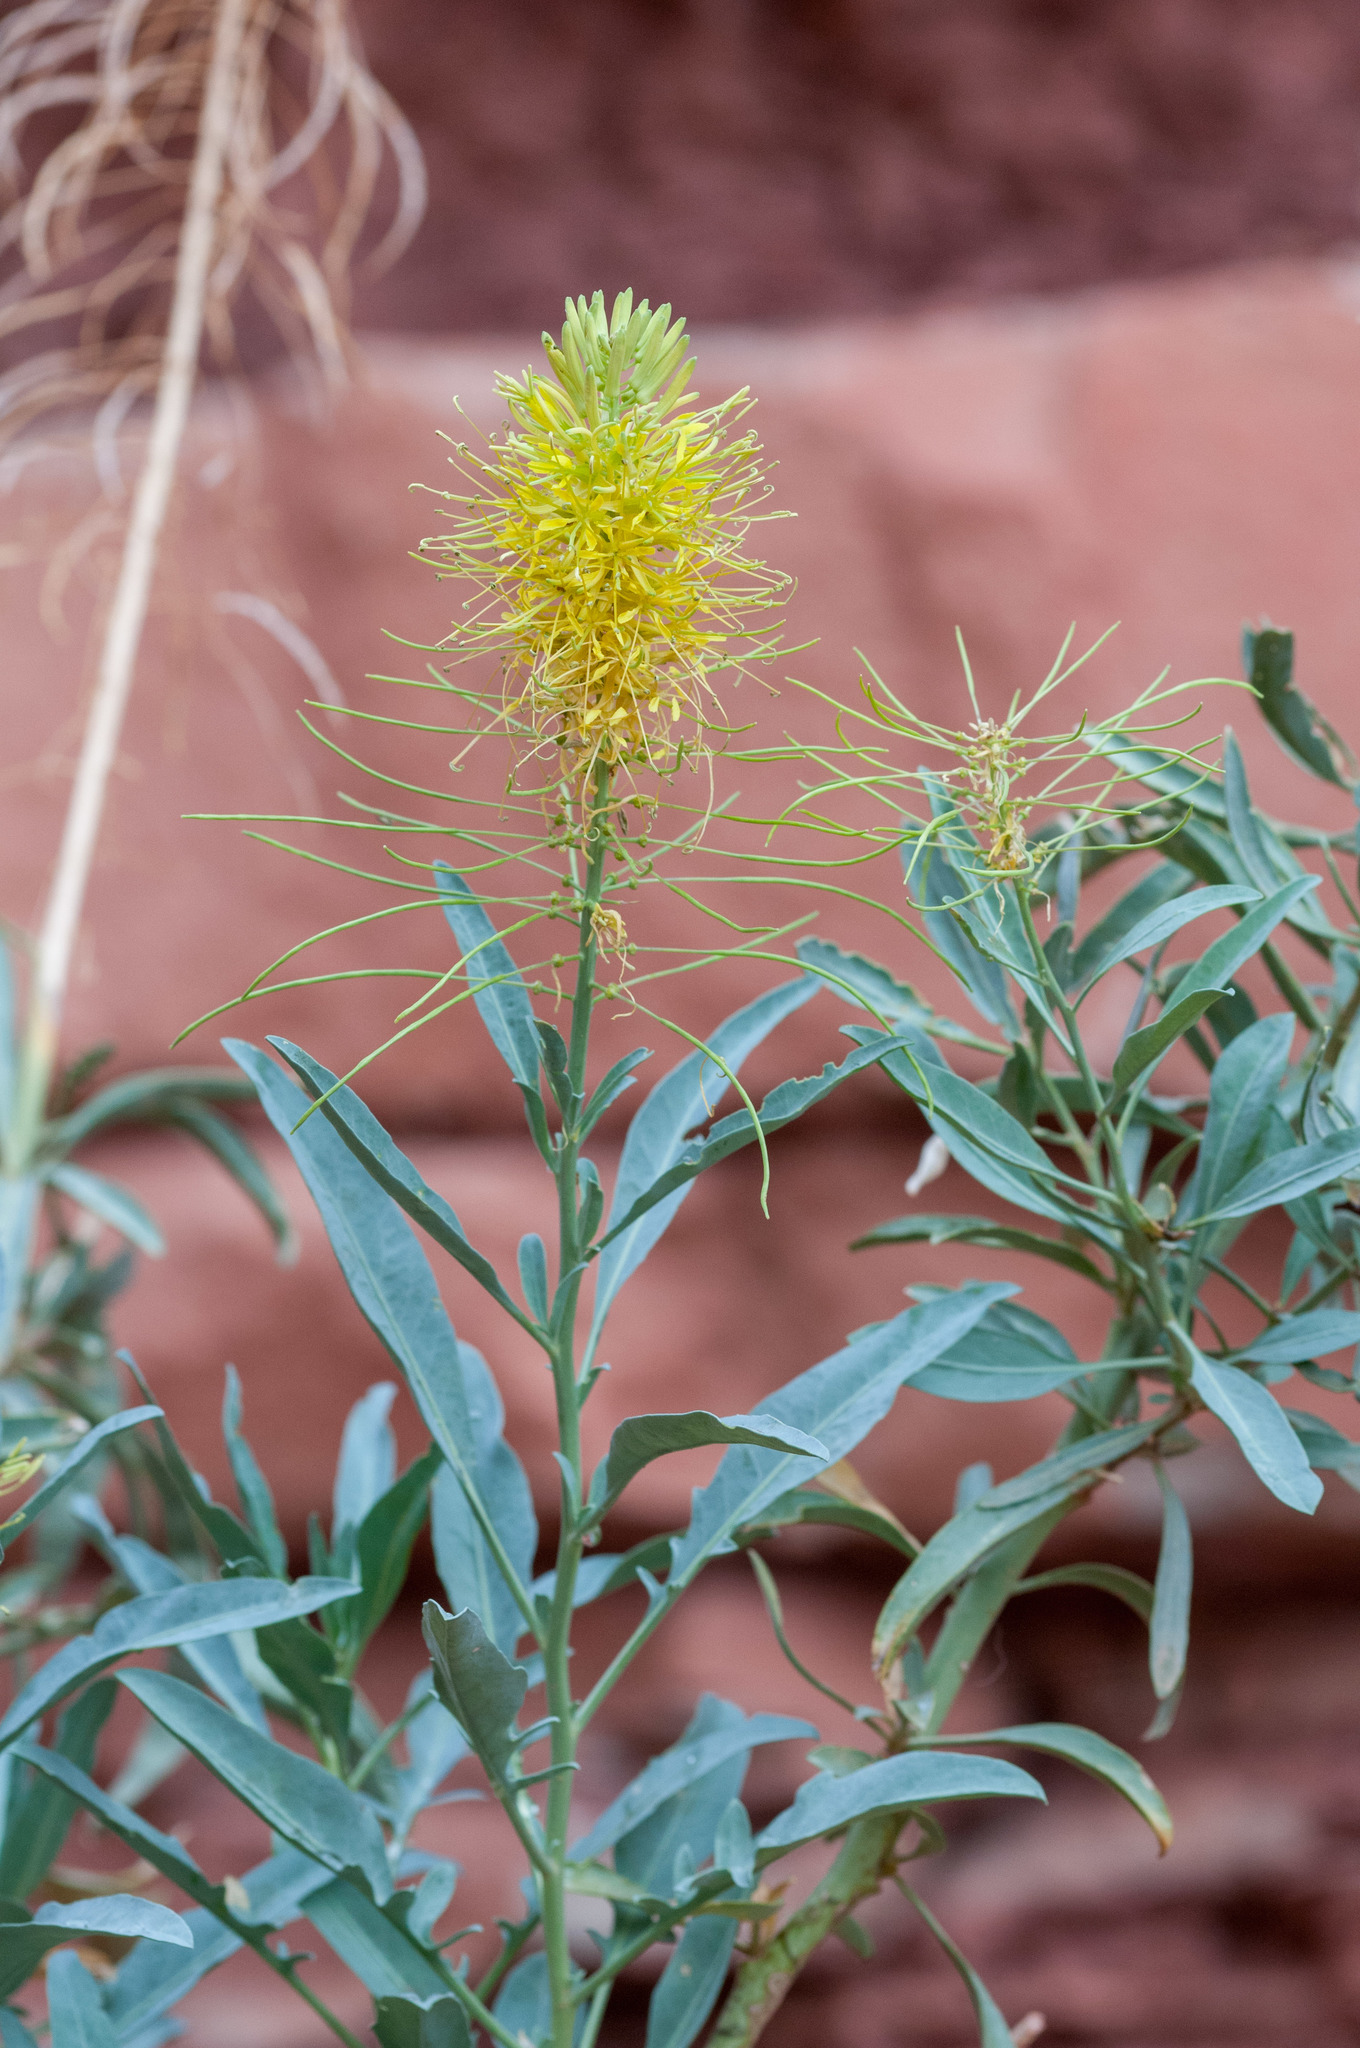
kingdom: Plantae
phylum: Tracheophyta
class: Magnoliopsida
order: Brassicales
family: Brassicaceae
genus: Stanleya
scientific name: Stanleya pinnata
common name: Prince's-plume
